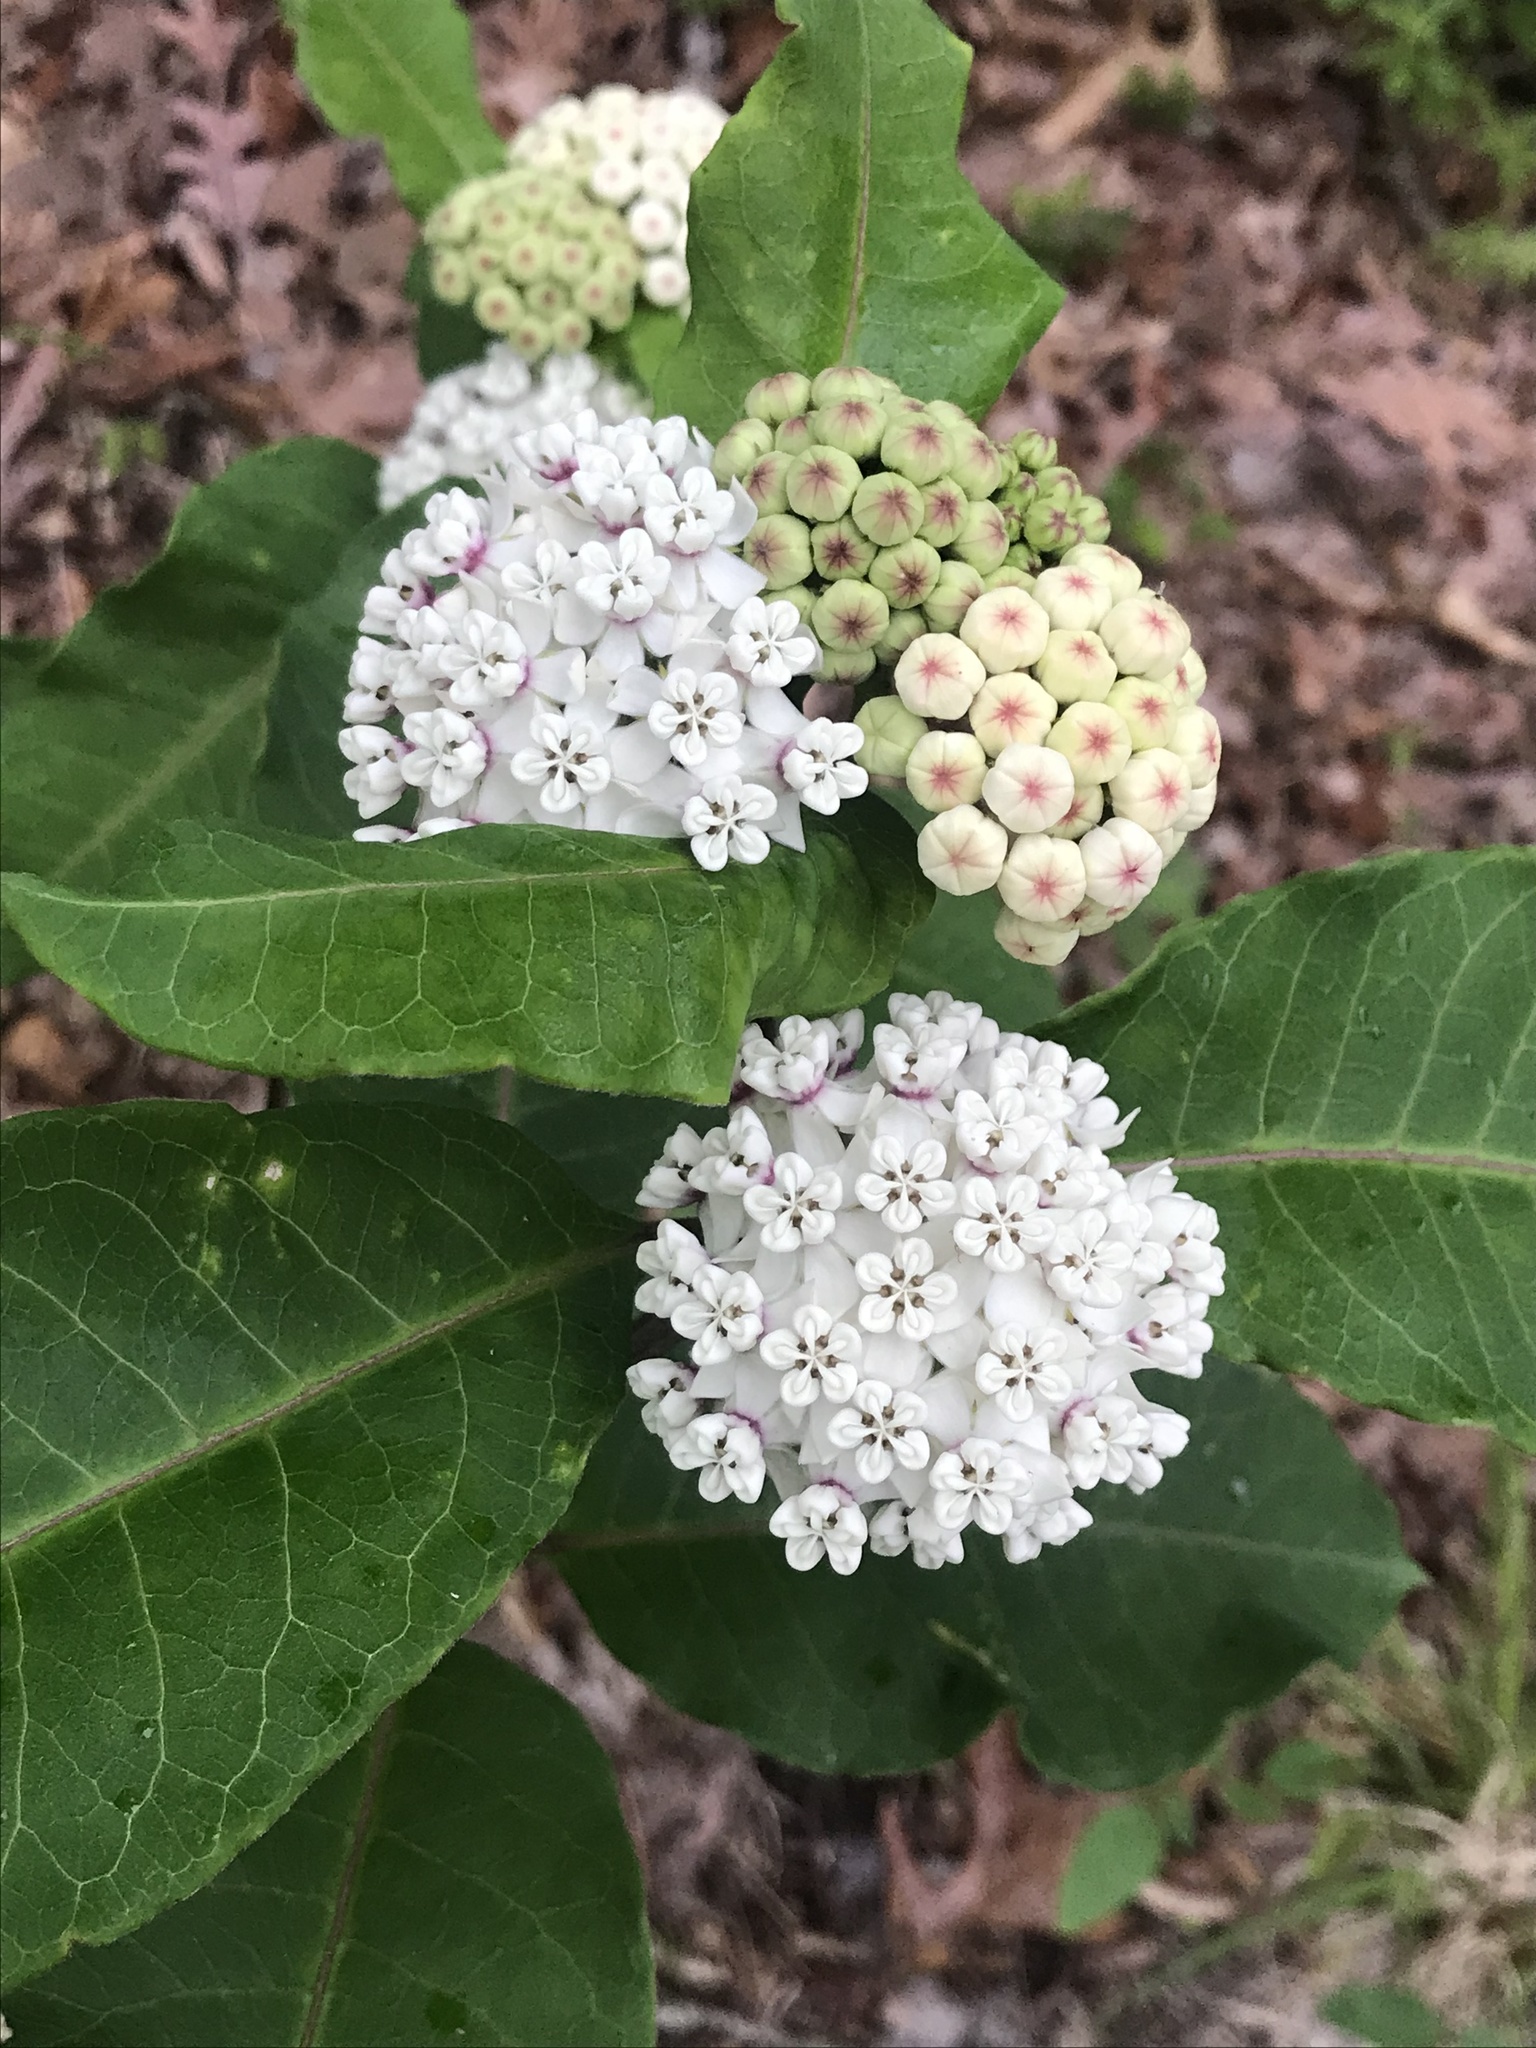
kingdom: Plantae
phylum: Tracheophyta
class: Magnoliopsida
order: Gentianales
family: Apocynaceae
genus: Asclepias
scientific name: Asclepias variegata
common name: Variegated milkweed
